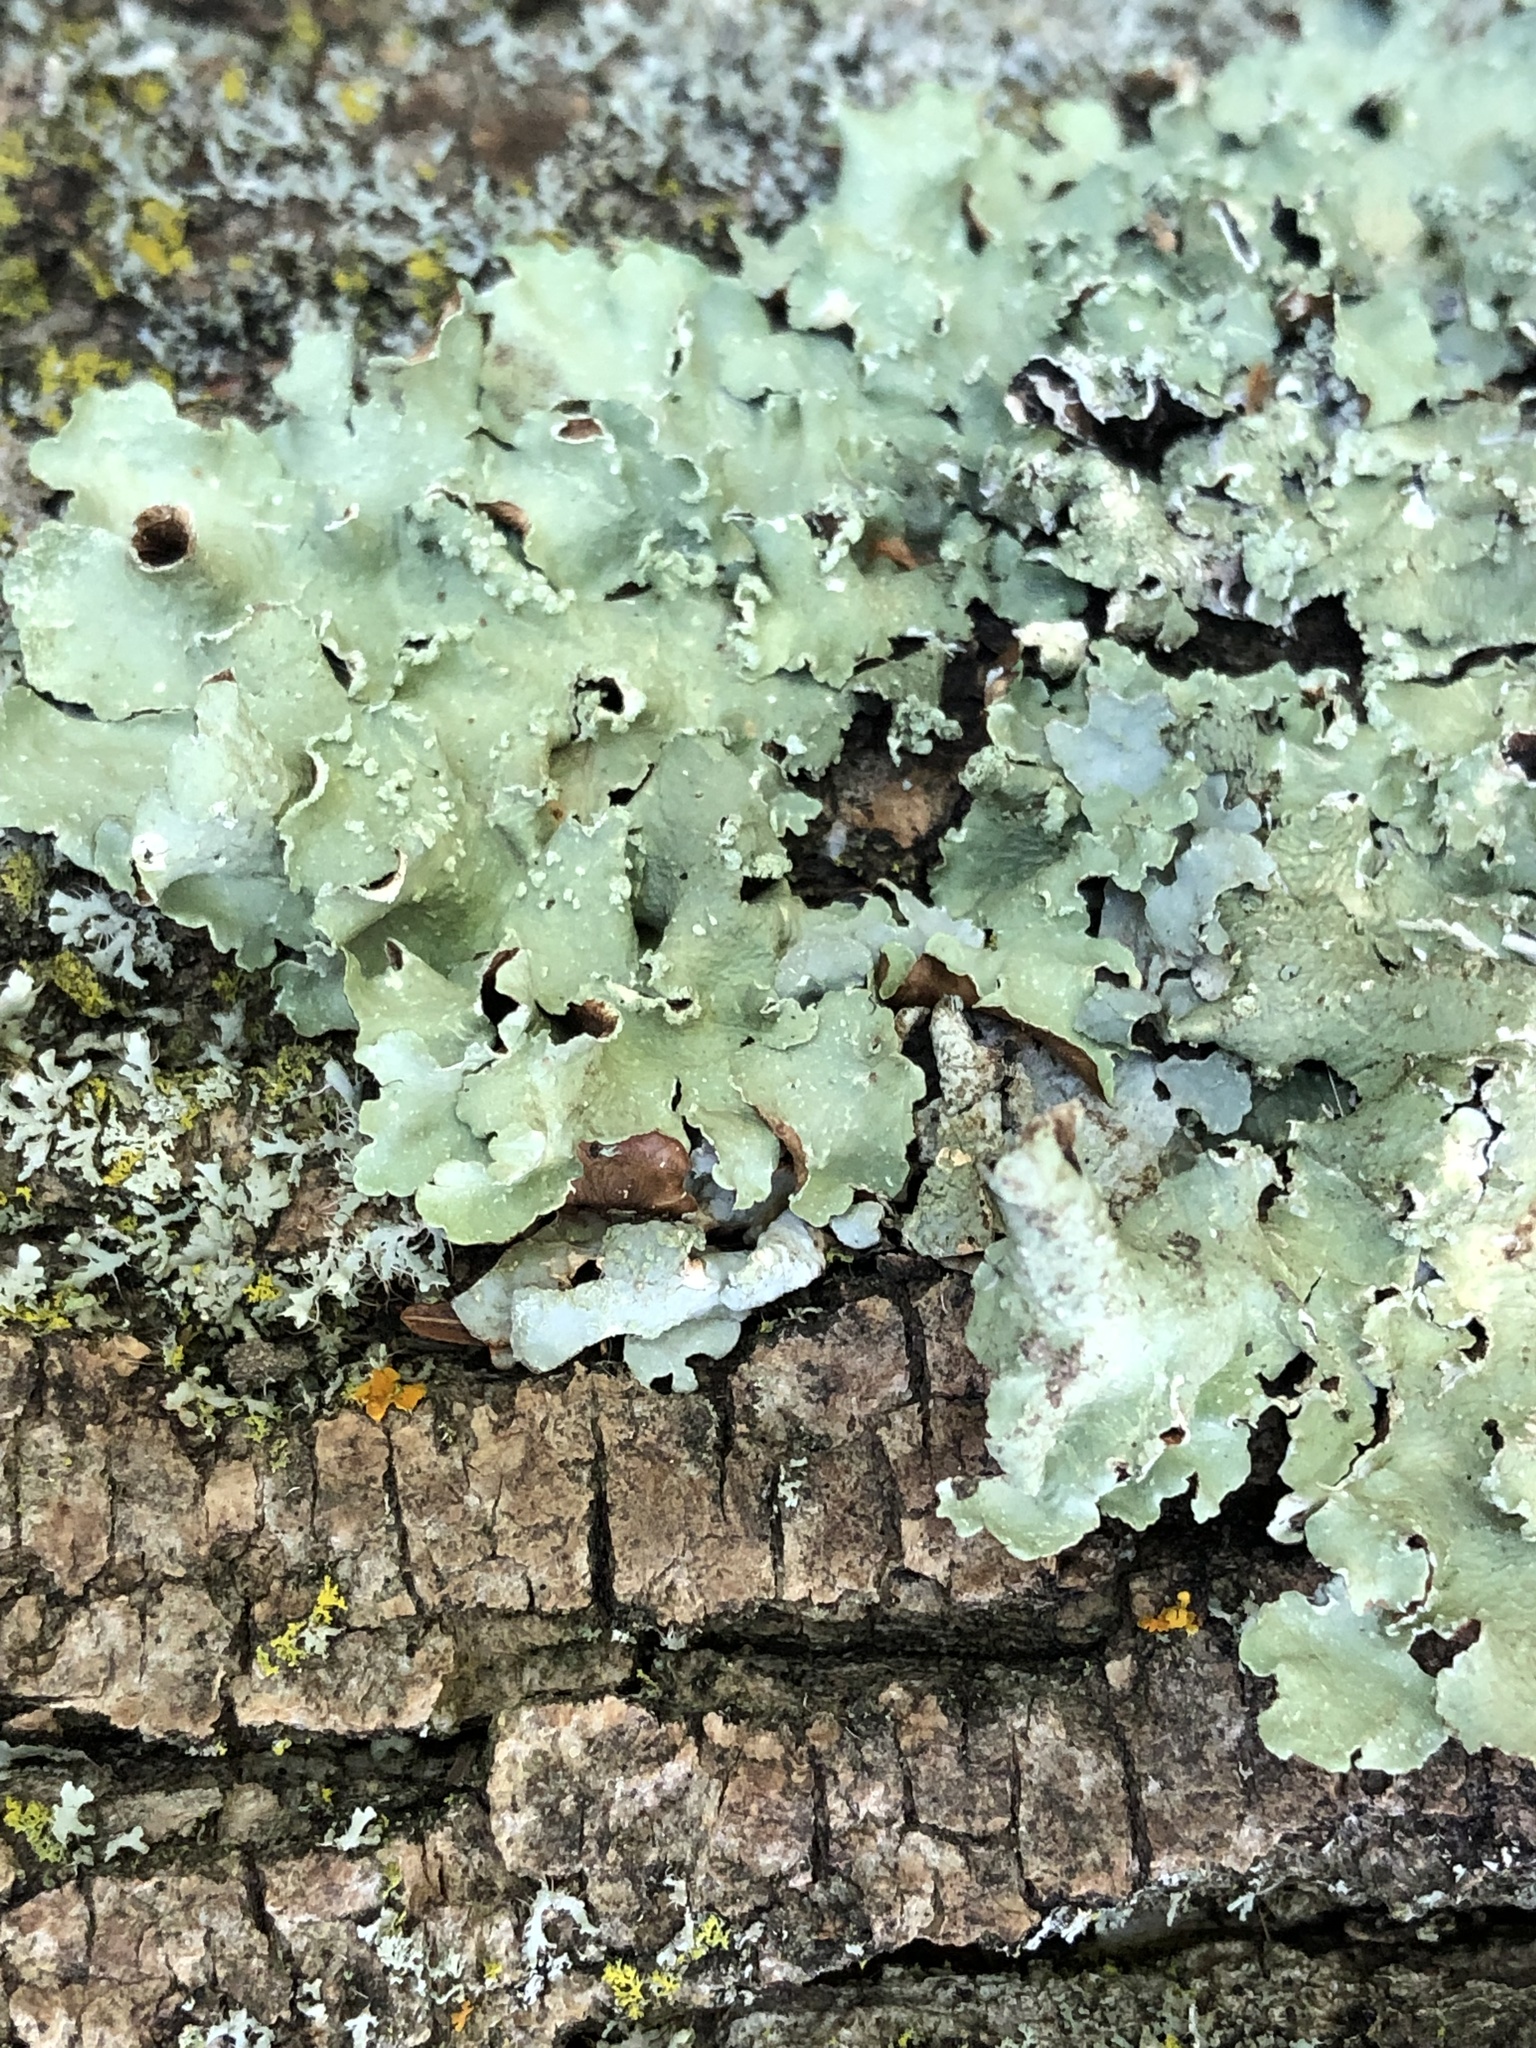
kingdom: Fungi
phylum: Ascomycota
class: Lecanoromycetes
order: Lecanorales
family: Parmeliaceae
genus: Flavopunctelia
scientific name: Flavopunctelia flaventior
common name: Speckled greenshield
